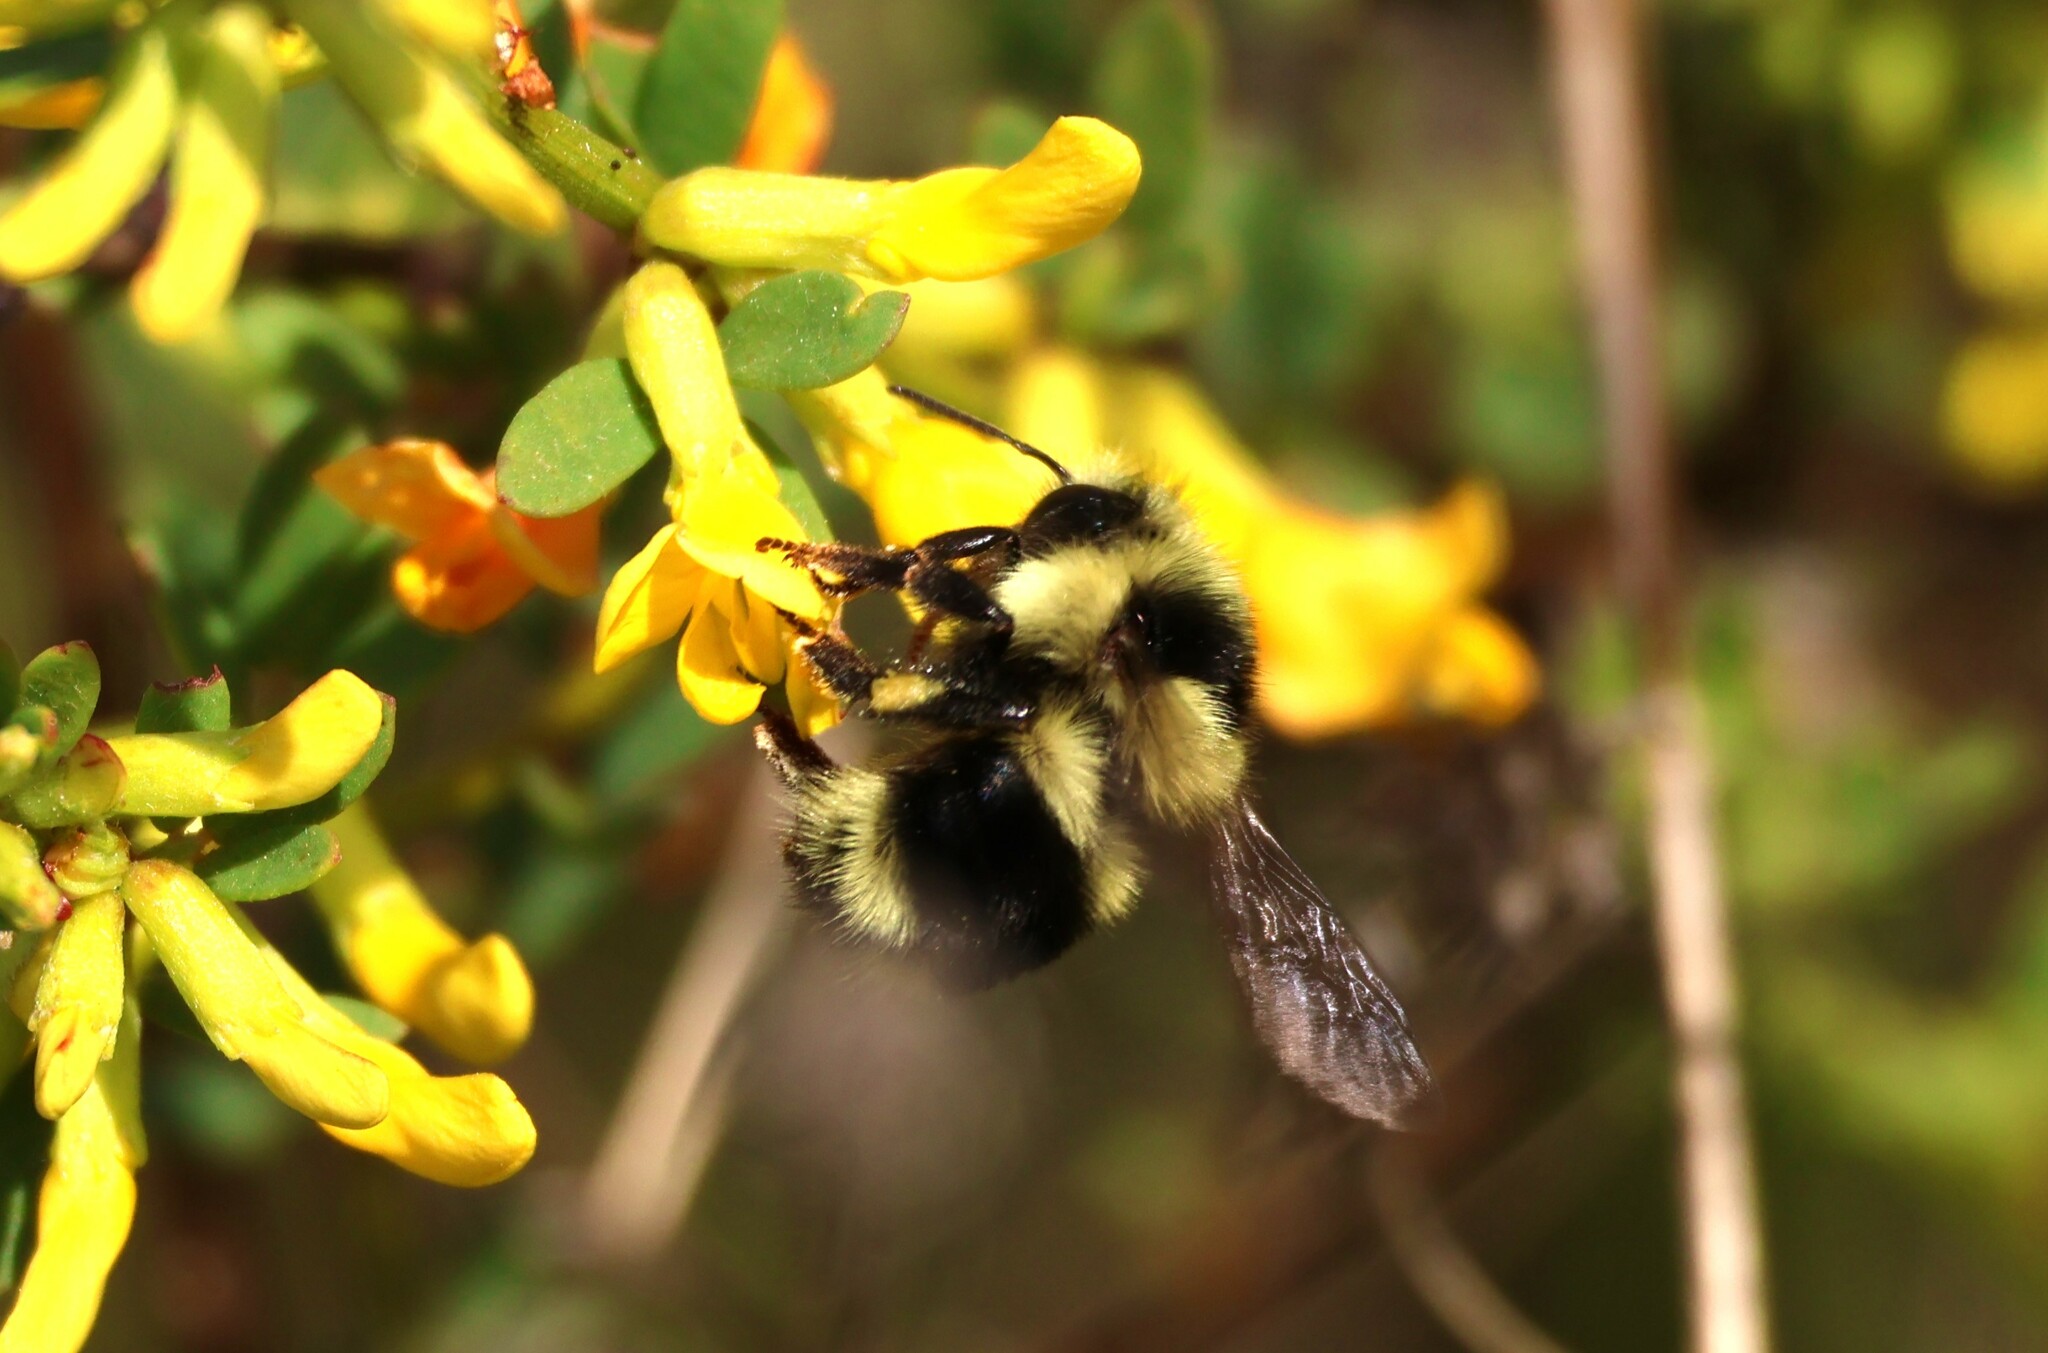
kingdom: Animalia
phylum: Arthropoda
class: Insecta
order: Hymenoptera
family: Apidae
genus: Bombus
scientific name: Bombus melanopygus
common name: Black tail bumble bee
